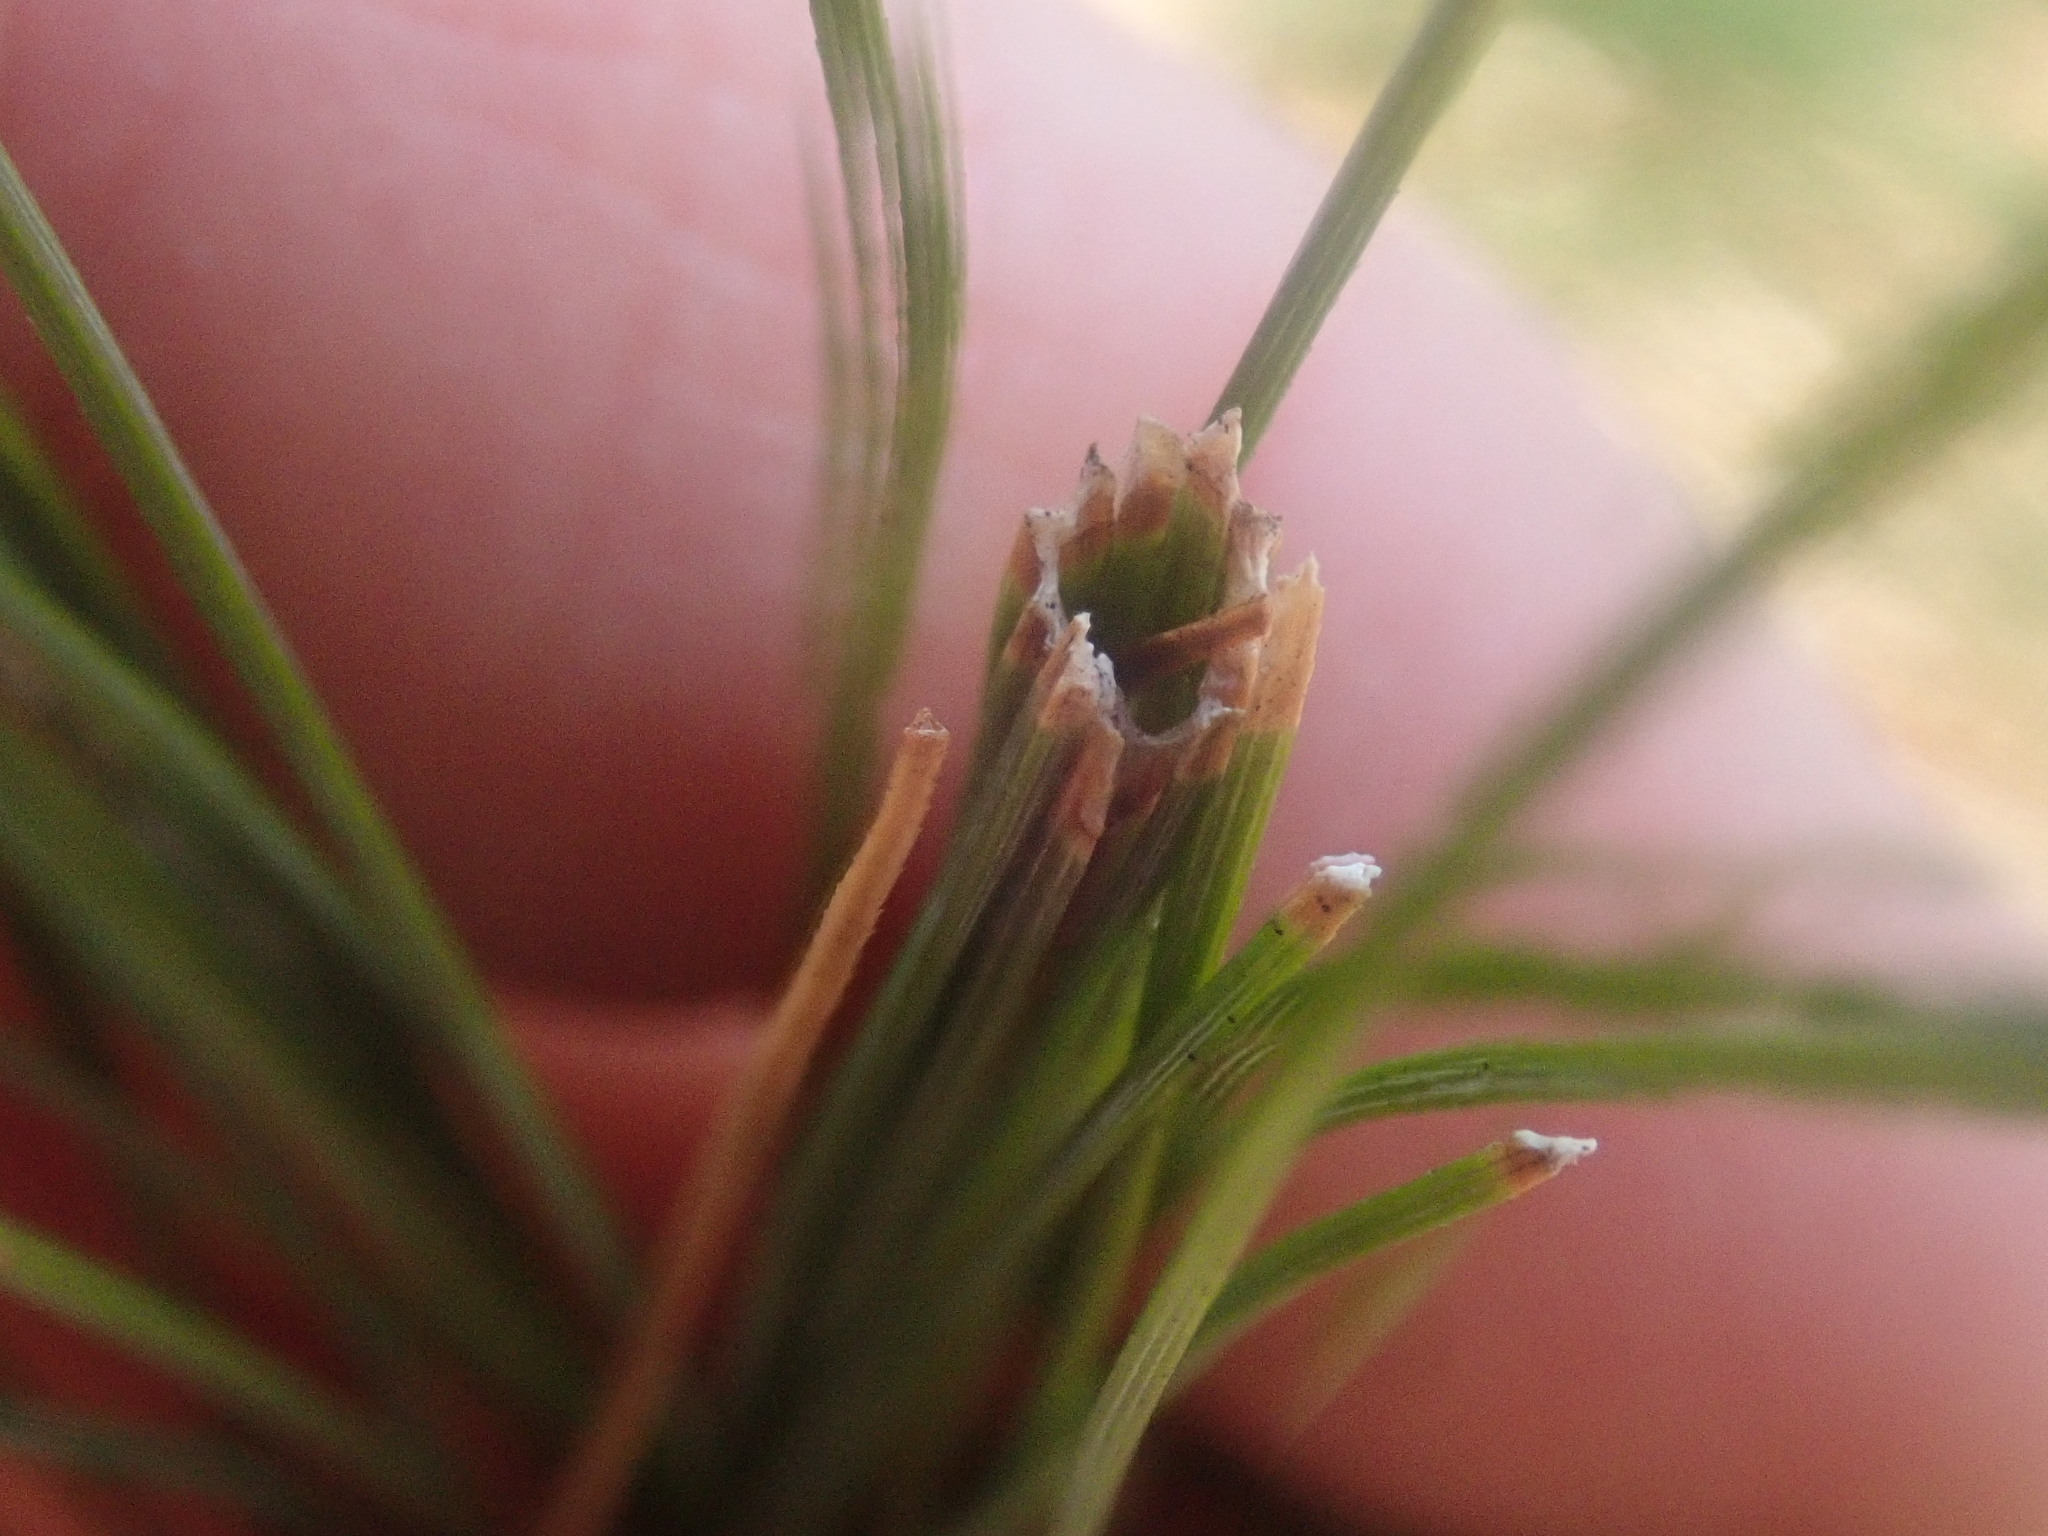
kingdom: Animalia
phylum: Arthropoda
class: Insecta
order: Lepidoptera
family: Tortricidae
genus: Argyrotaenia
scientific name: Argyrotaenia pinatubana
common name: Pine tube moth
